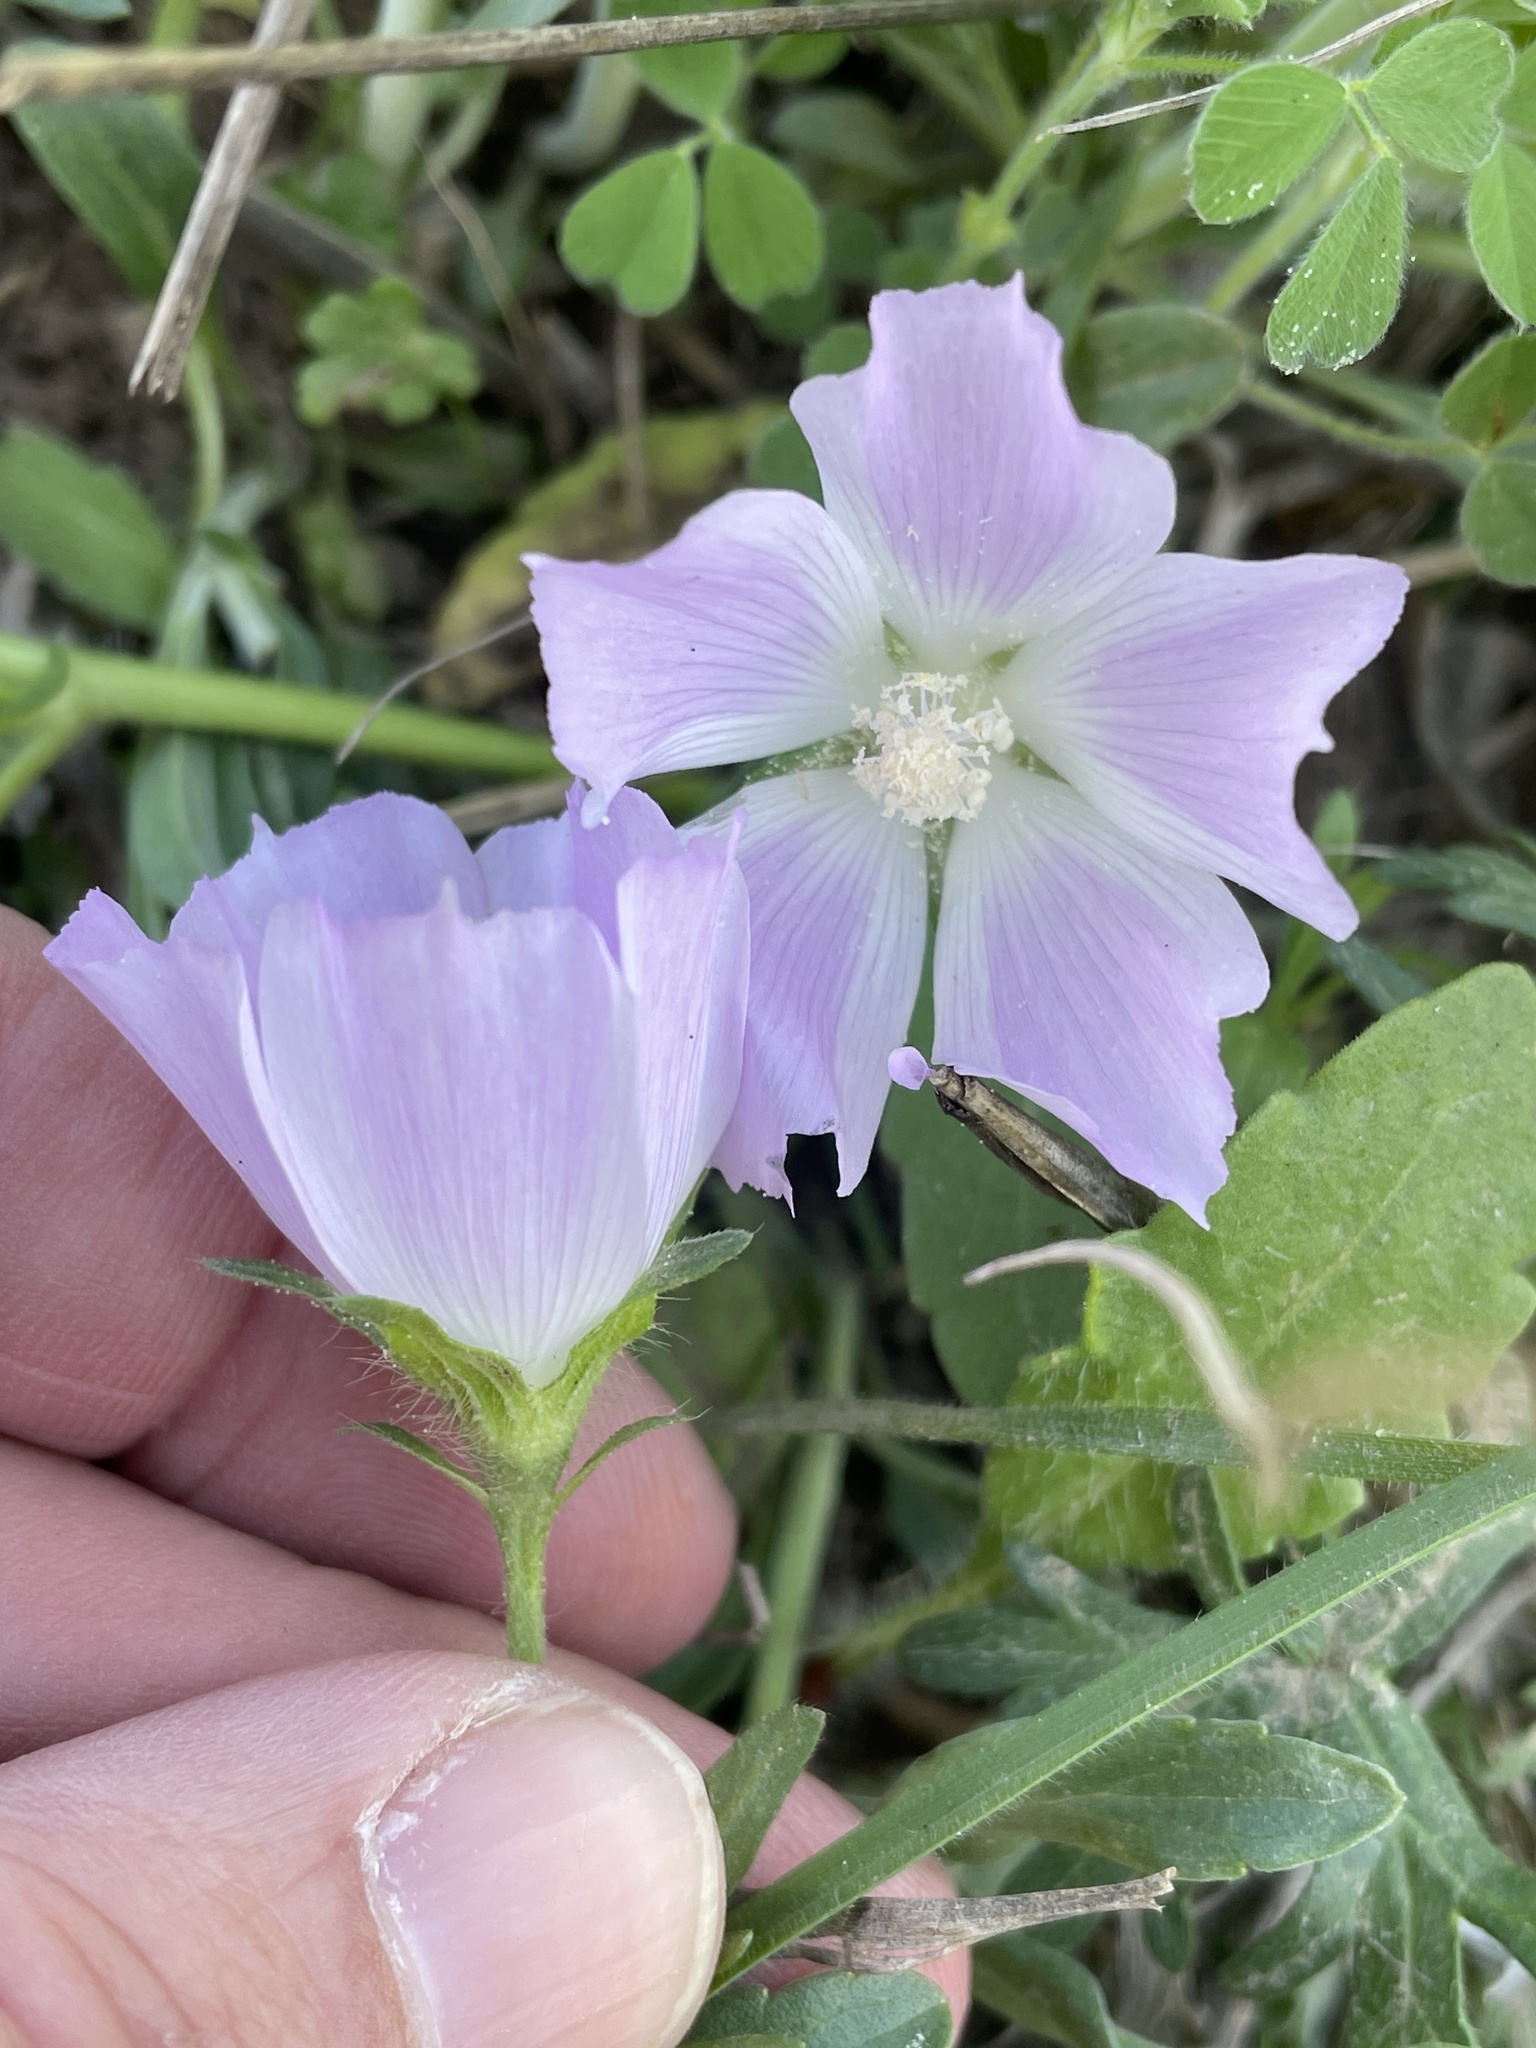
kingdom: Plantae
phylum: Tracheophyta
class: Magnoliopsida
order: Malvales
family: Malvaceae
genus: Callirhoe
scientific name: Callirhoe involucrata
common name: Purple poppy-mallow
